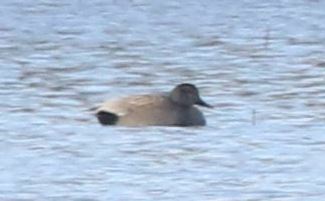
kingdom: Animalia
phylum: Chordata
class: Aves
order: Anseriformes
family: Anatidae
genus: Mareca
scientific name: Mareca strepera
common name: Gadwall
